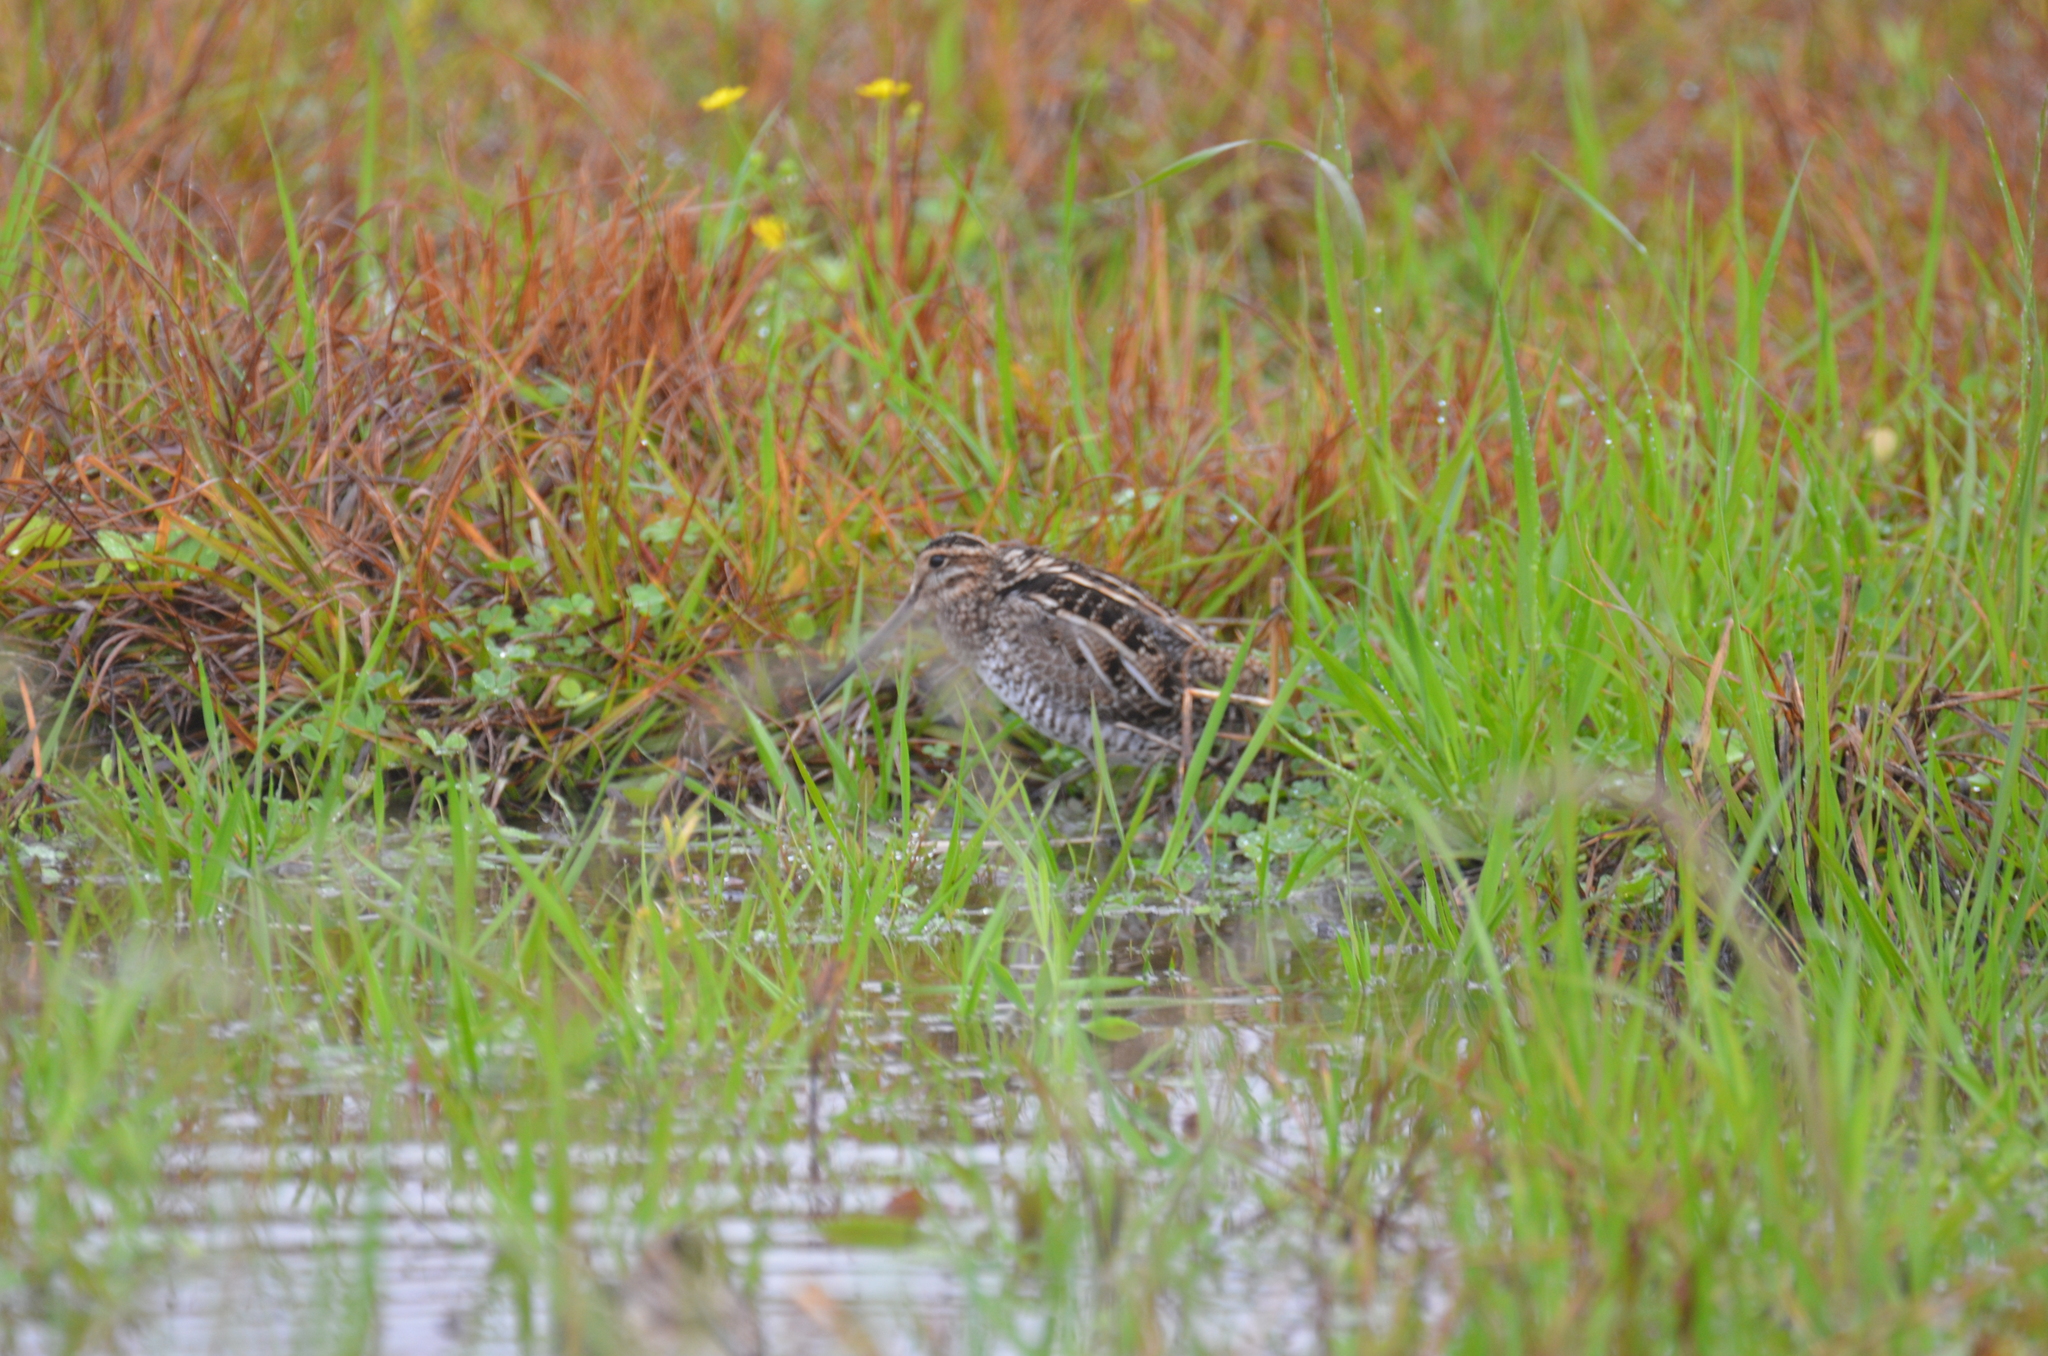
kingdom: Animalia
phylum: Chordata
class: Aves
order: Charadriiformes
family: Scolopacidae
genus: Gallinago
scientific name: Gallinago delicata
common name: Wilson's snipe
